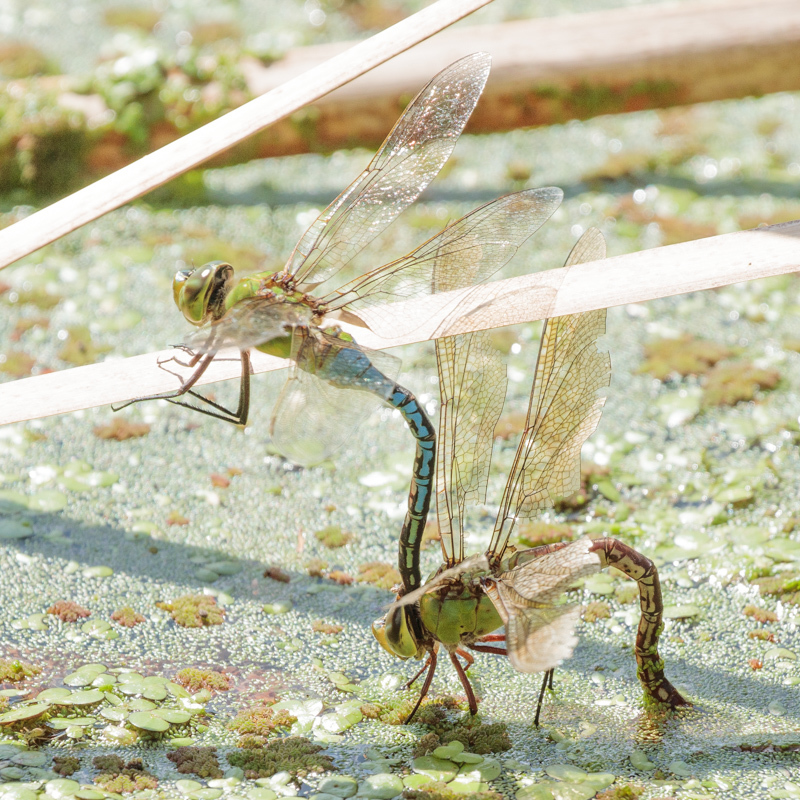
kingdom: Animalia
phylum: Arthropoda
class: Insecta
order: Odonata
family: Aeshnidae
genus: Anax
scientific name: Anax junius
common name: Common green darner
